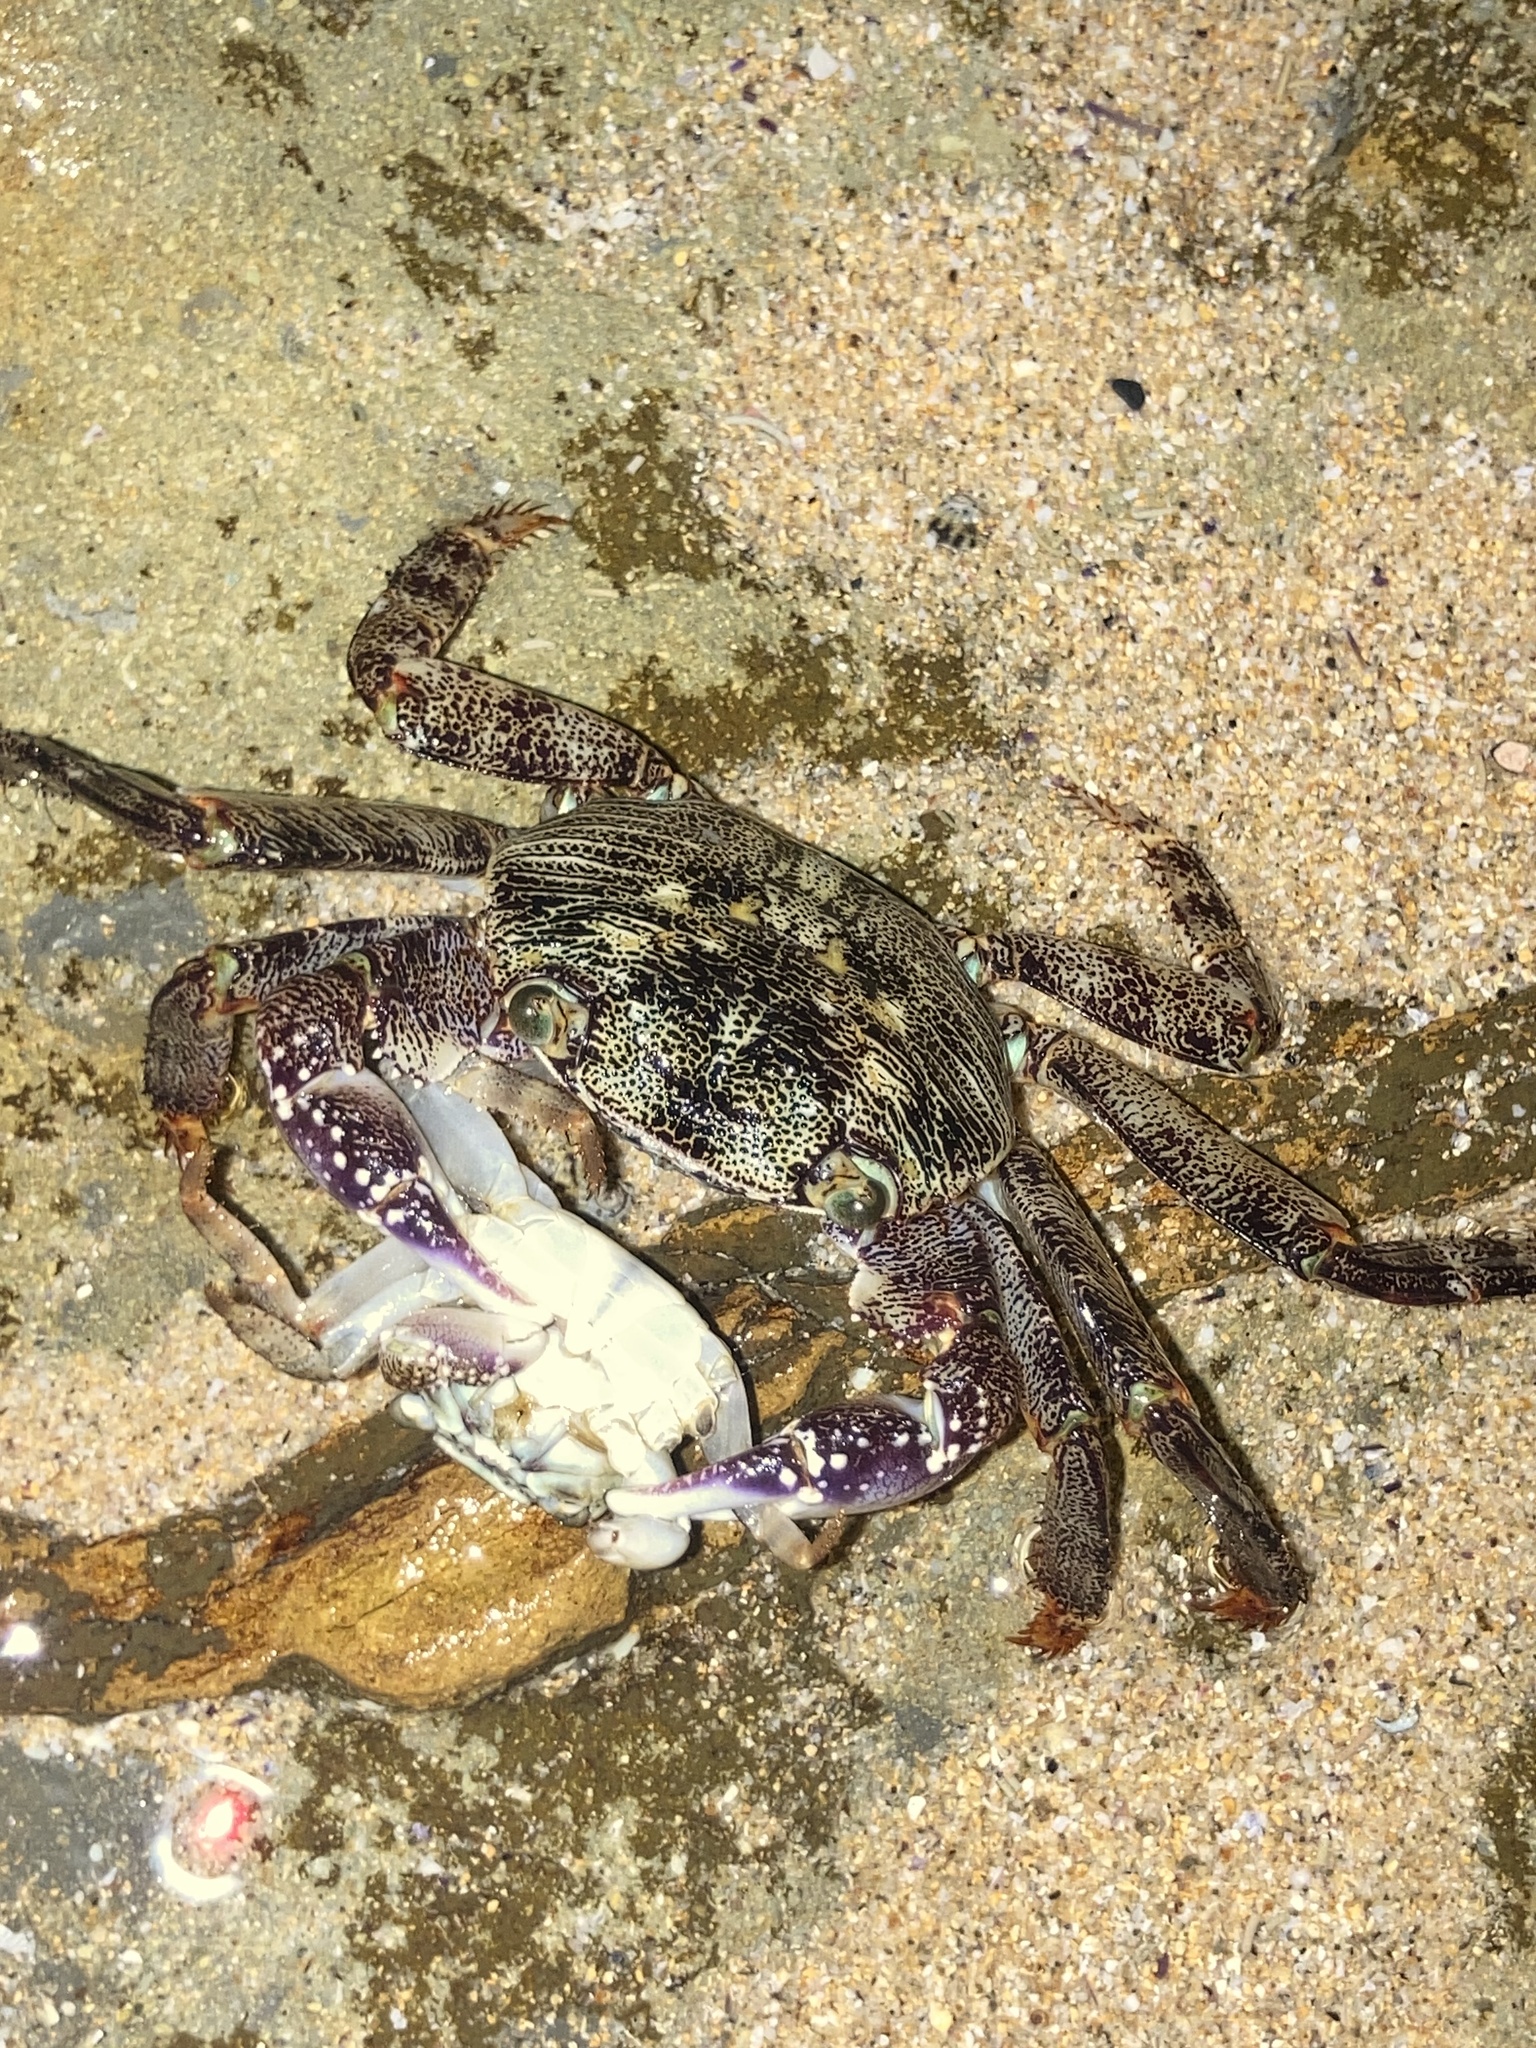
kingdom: Animalia
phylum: Arthropoda
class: Malacostraca
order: Decapoda
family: Grapsidae
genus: Leptograpsus
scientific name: Leptograpsus variegatus
